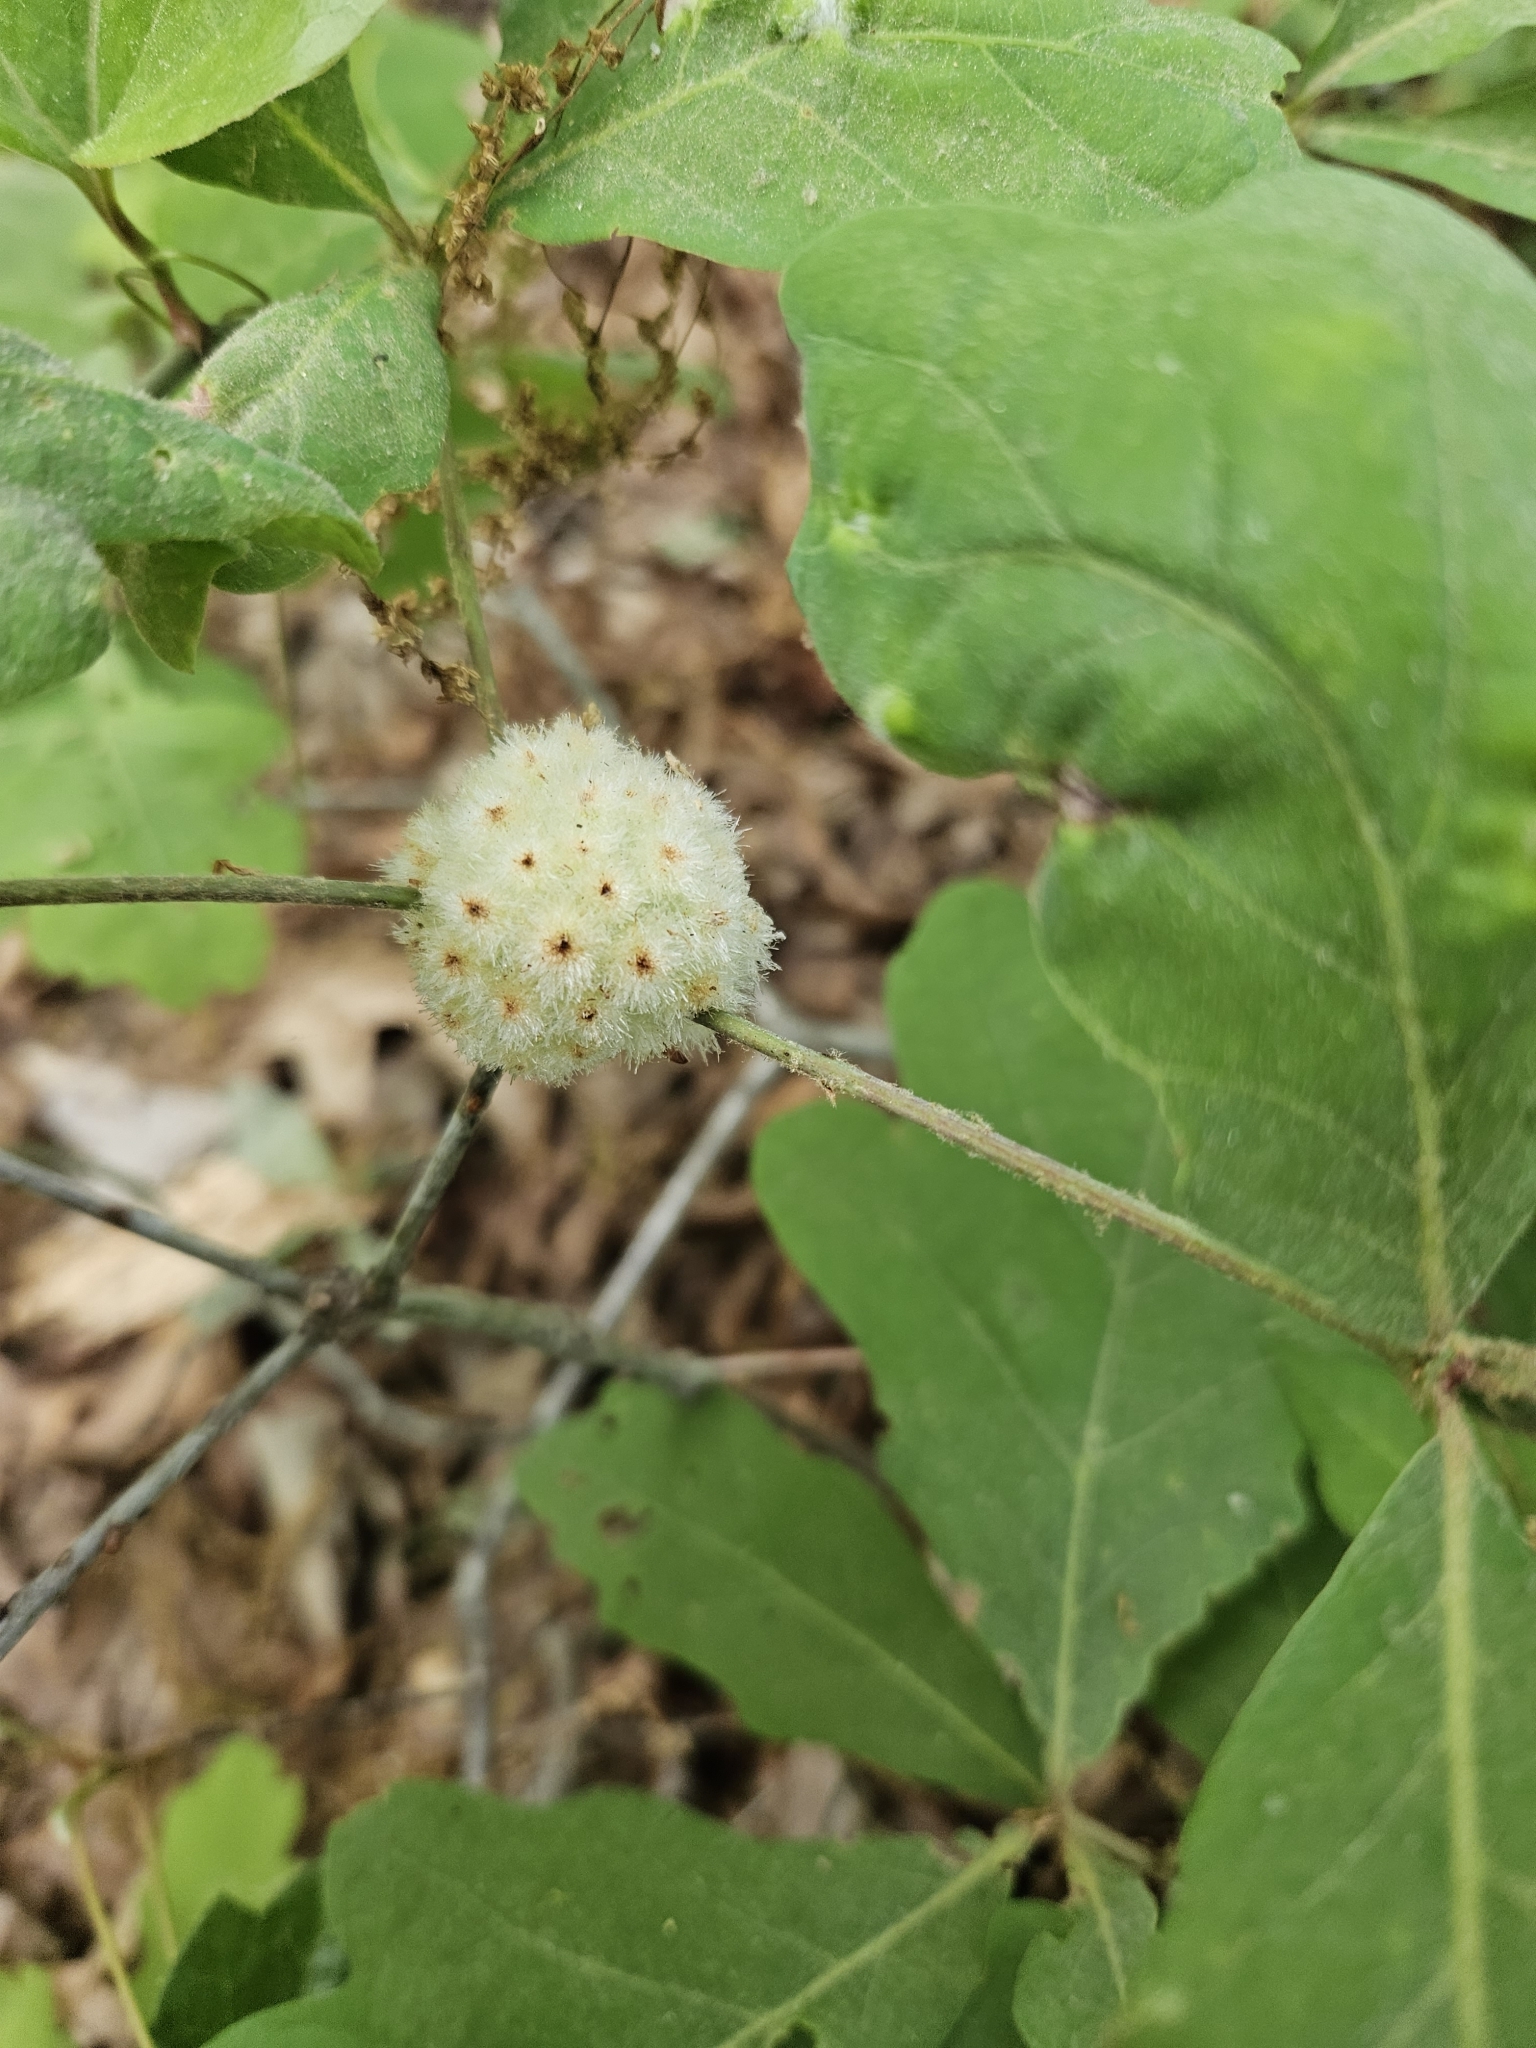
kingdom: Animalia
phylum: Arthropoda
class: Insecta
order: Hymenoptera
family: Cynipidae
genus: Callirhytis
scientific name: Callirhytis
